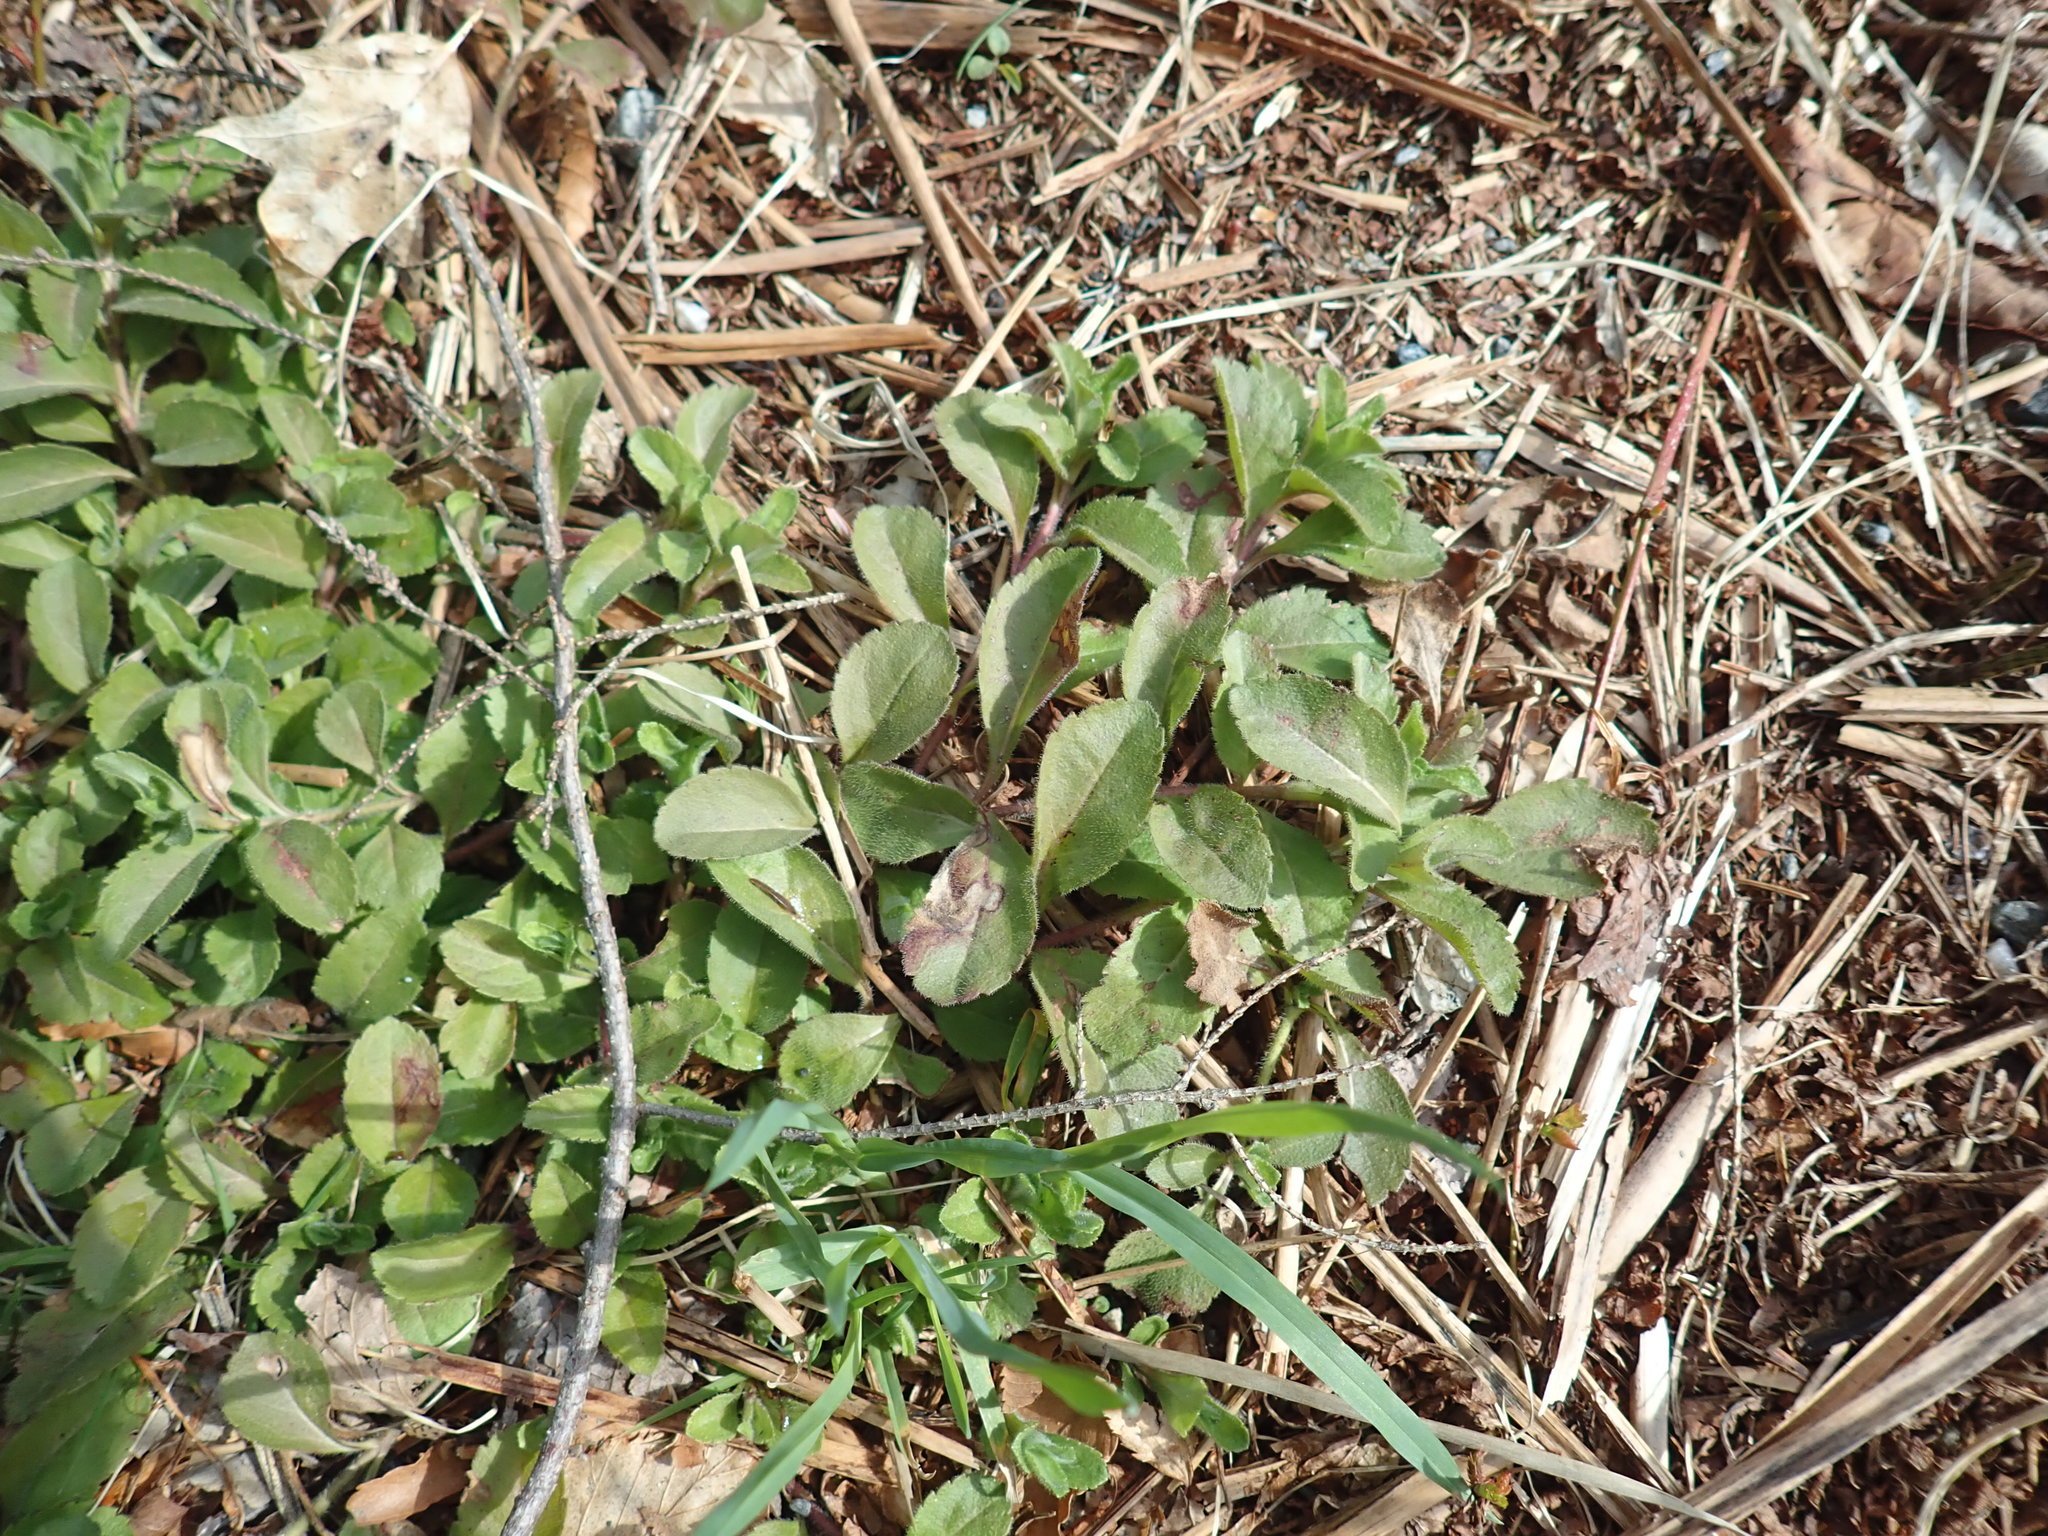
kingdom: Plantae
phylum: Tracheophyta
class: Magnoliopsida
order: Lamiales
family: Plantaginaceae
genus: Veronica
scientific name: Veronica officinalis
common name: Common speedwell
